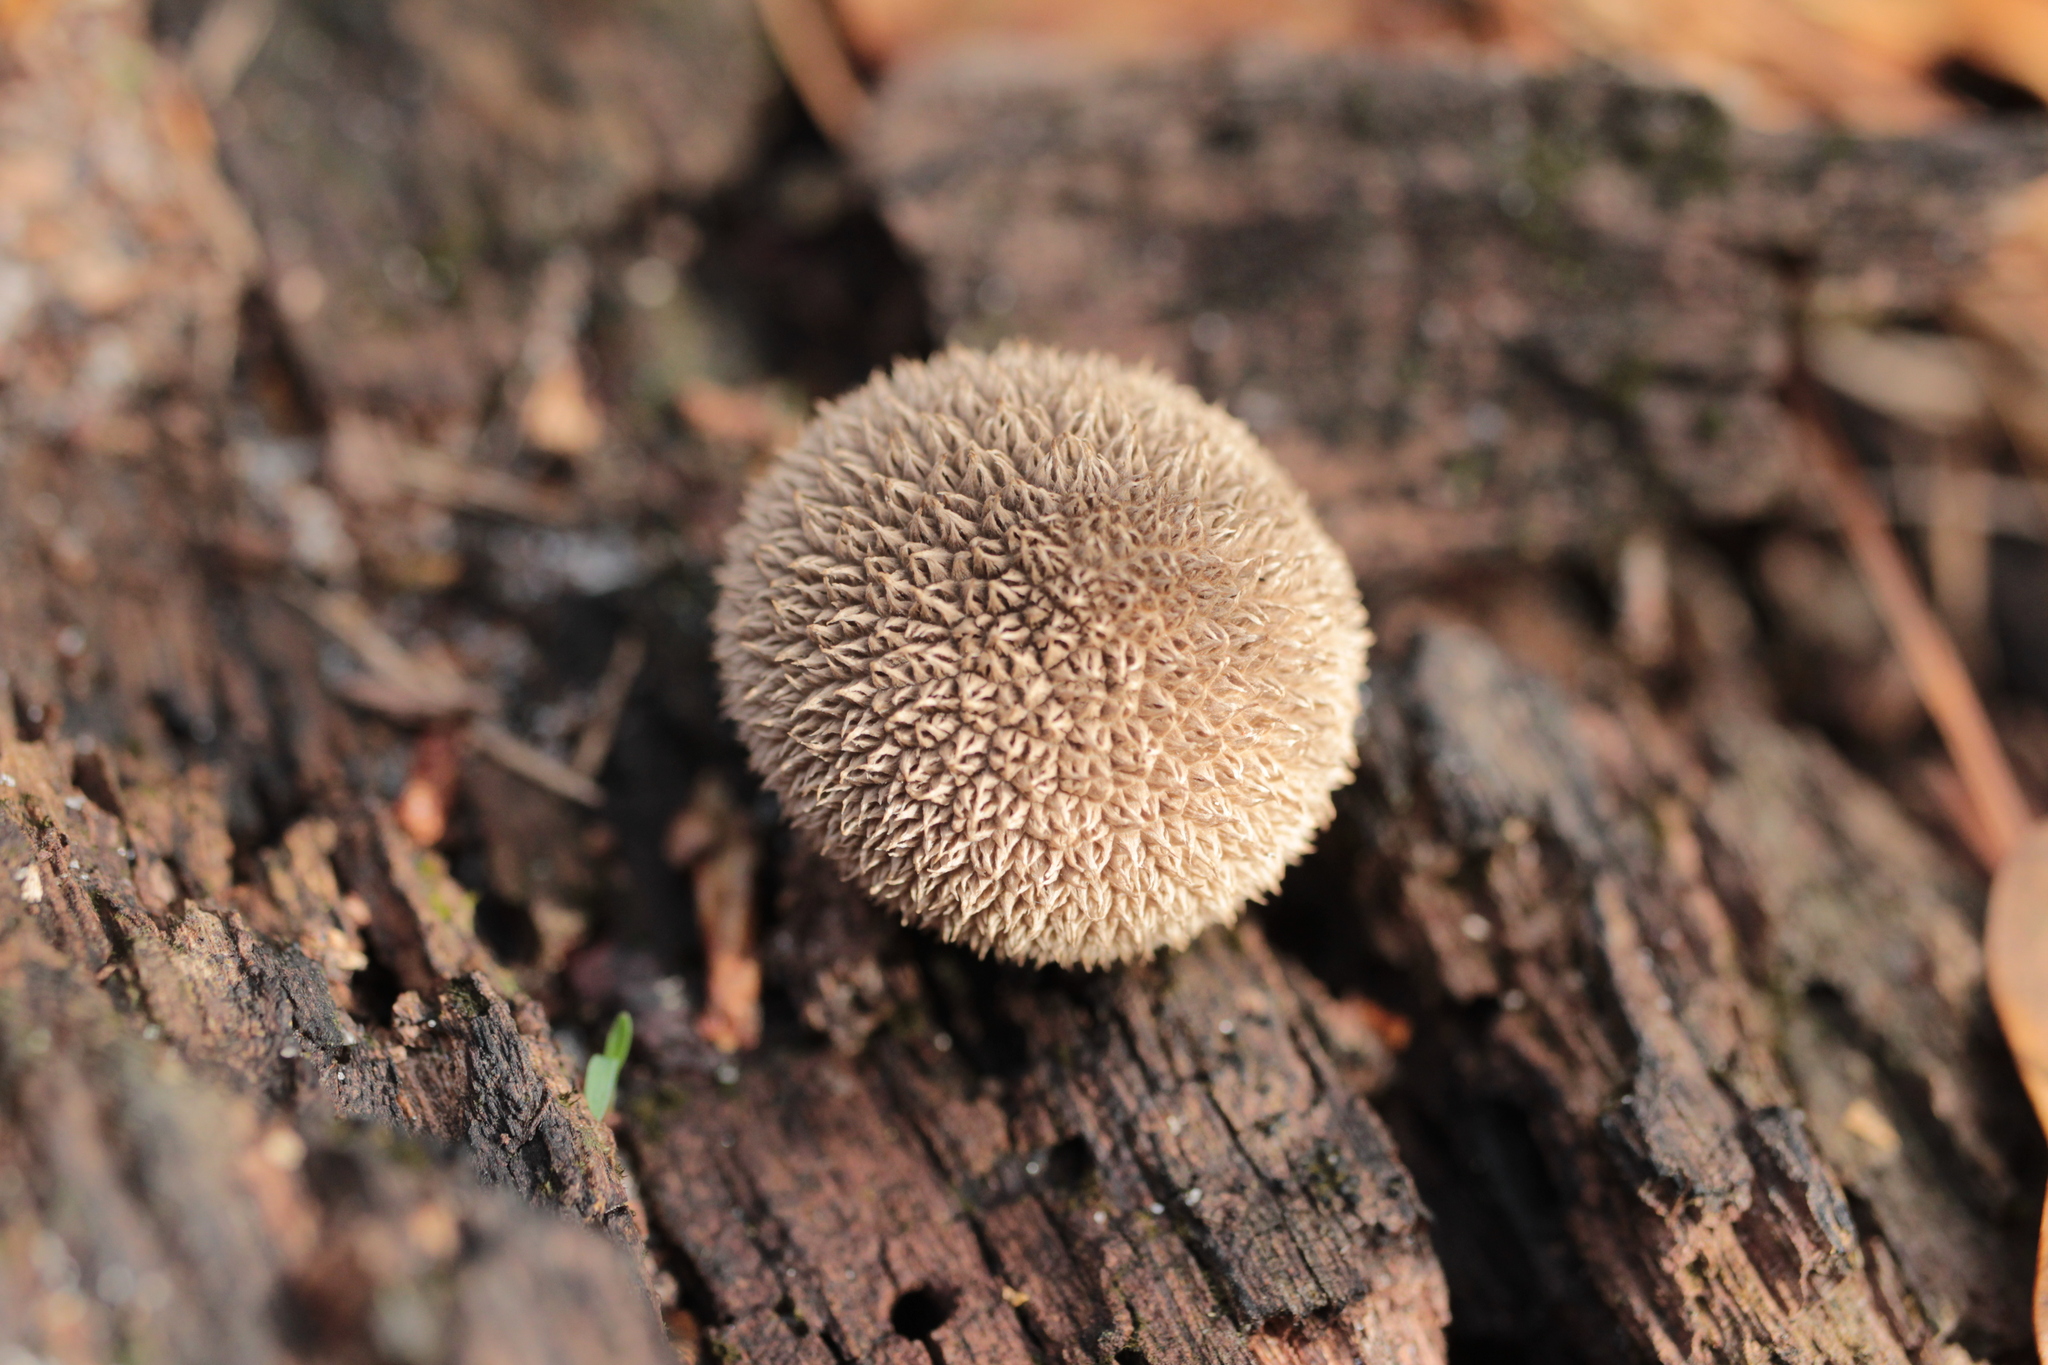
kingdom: Fungi
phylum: Basidiomycota
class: Agaricomycetes
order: Agaricales
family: Lycoperdaceae
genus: Lycoperdon
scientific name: Lycoperdon echinatum
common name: Hedgehog puffball
